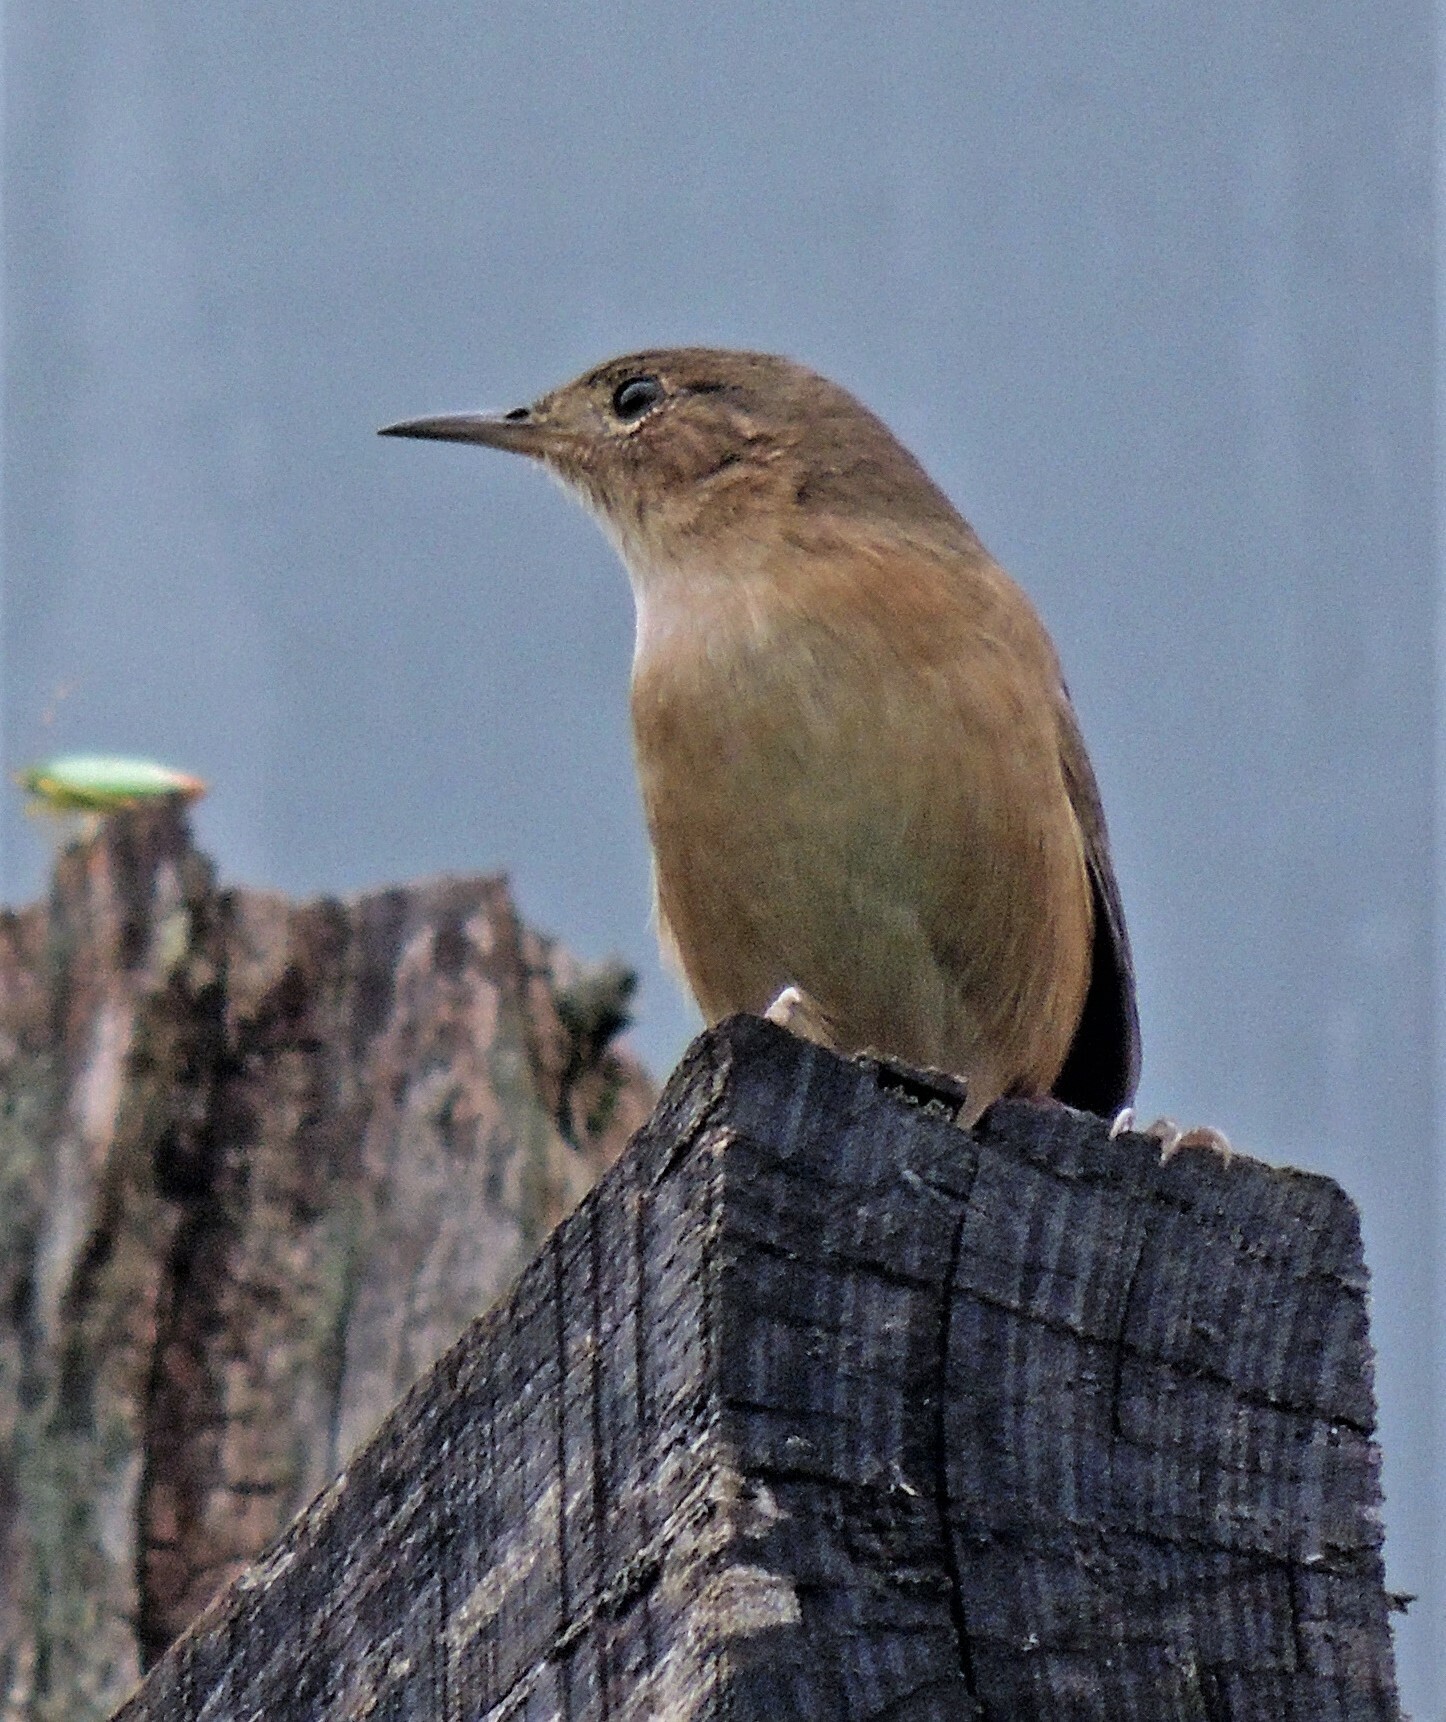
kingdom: Animalia
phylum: Chordata
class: Aves
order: Passeriformes
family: Troglodytidae
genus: Troglodytes
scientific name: Troglodytes aedon
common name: House wren
